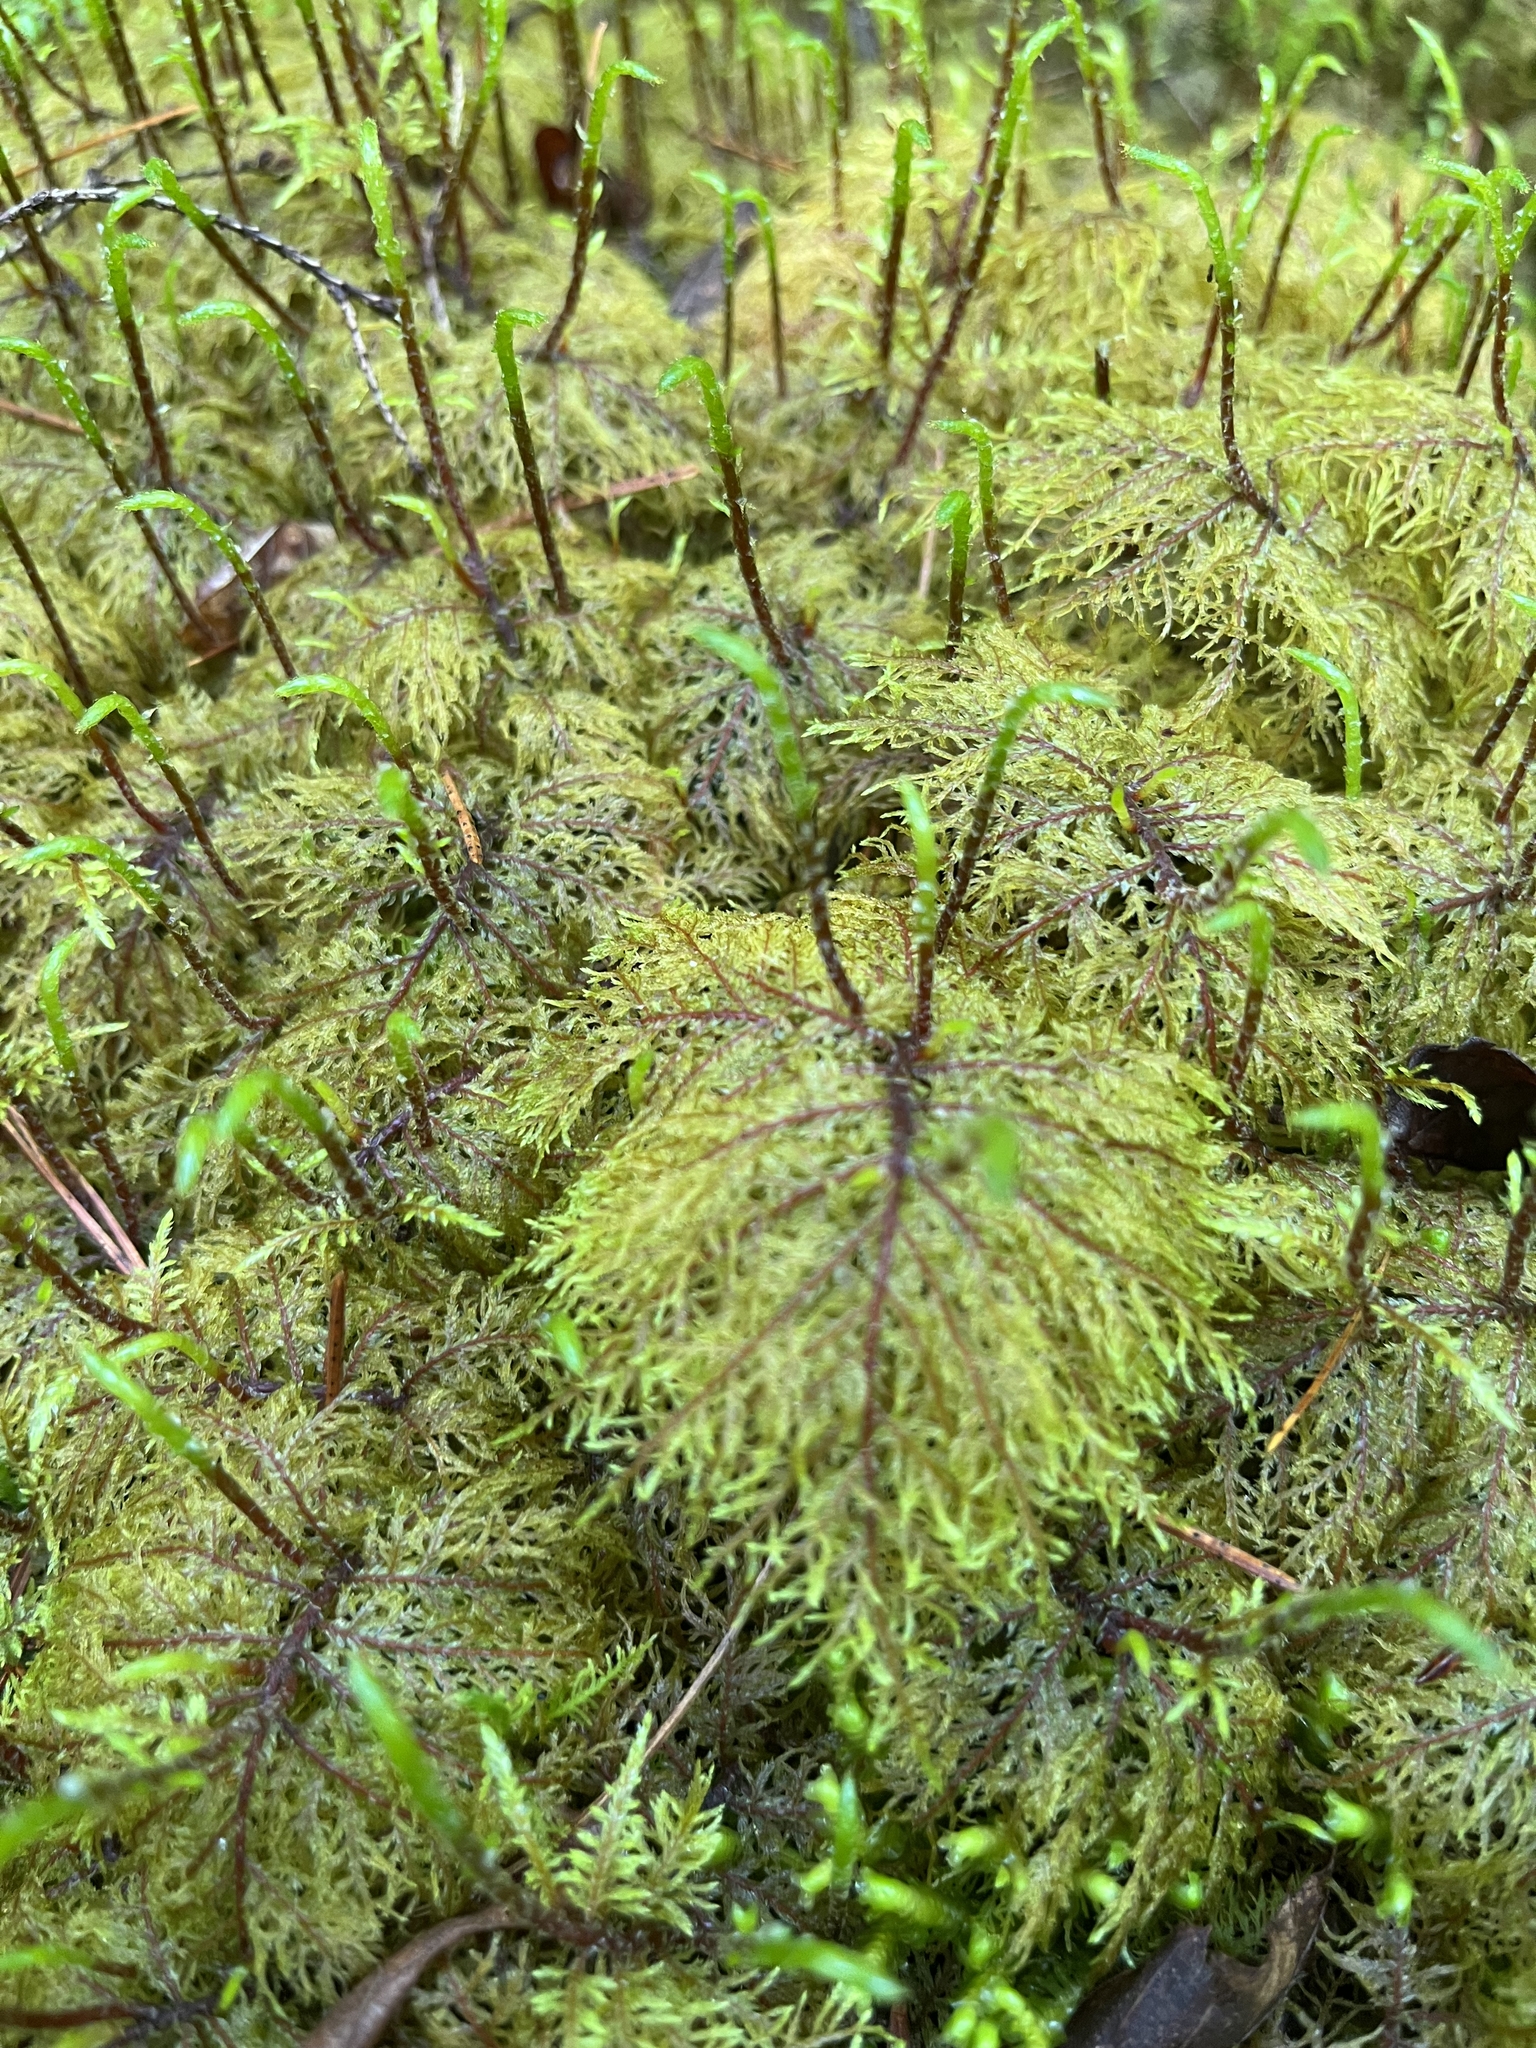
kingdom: Plantae
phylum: Bryophyta
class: Bryopsida
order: Hypnales
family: Hylocomiaceae
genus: Hylocomium
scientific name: Hylocomium splendens
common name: Stairstep moss
